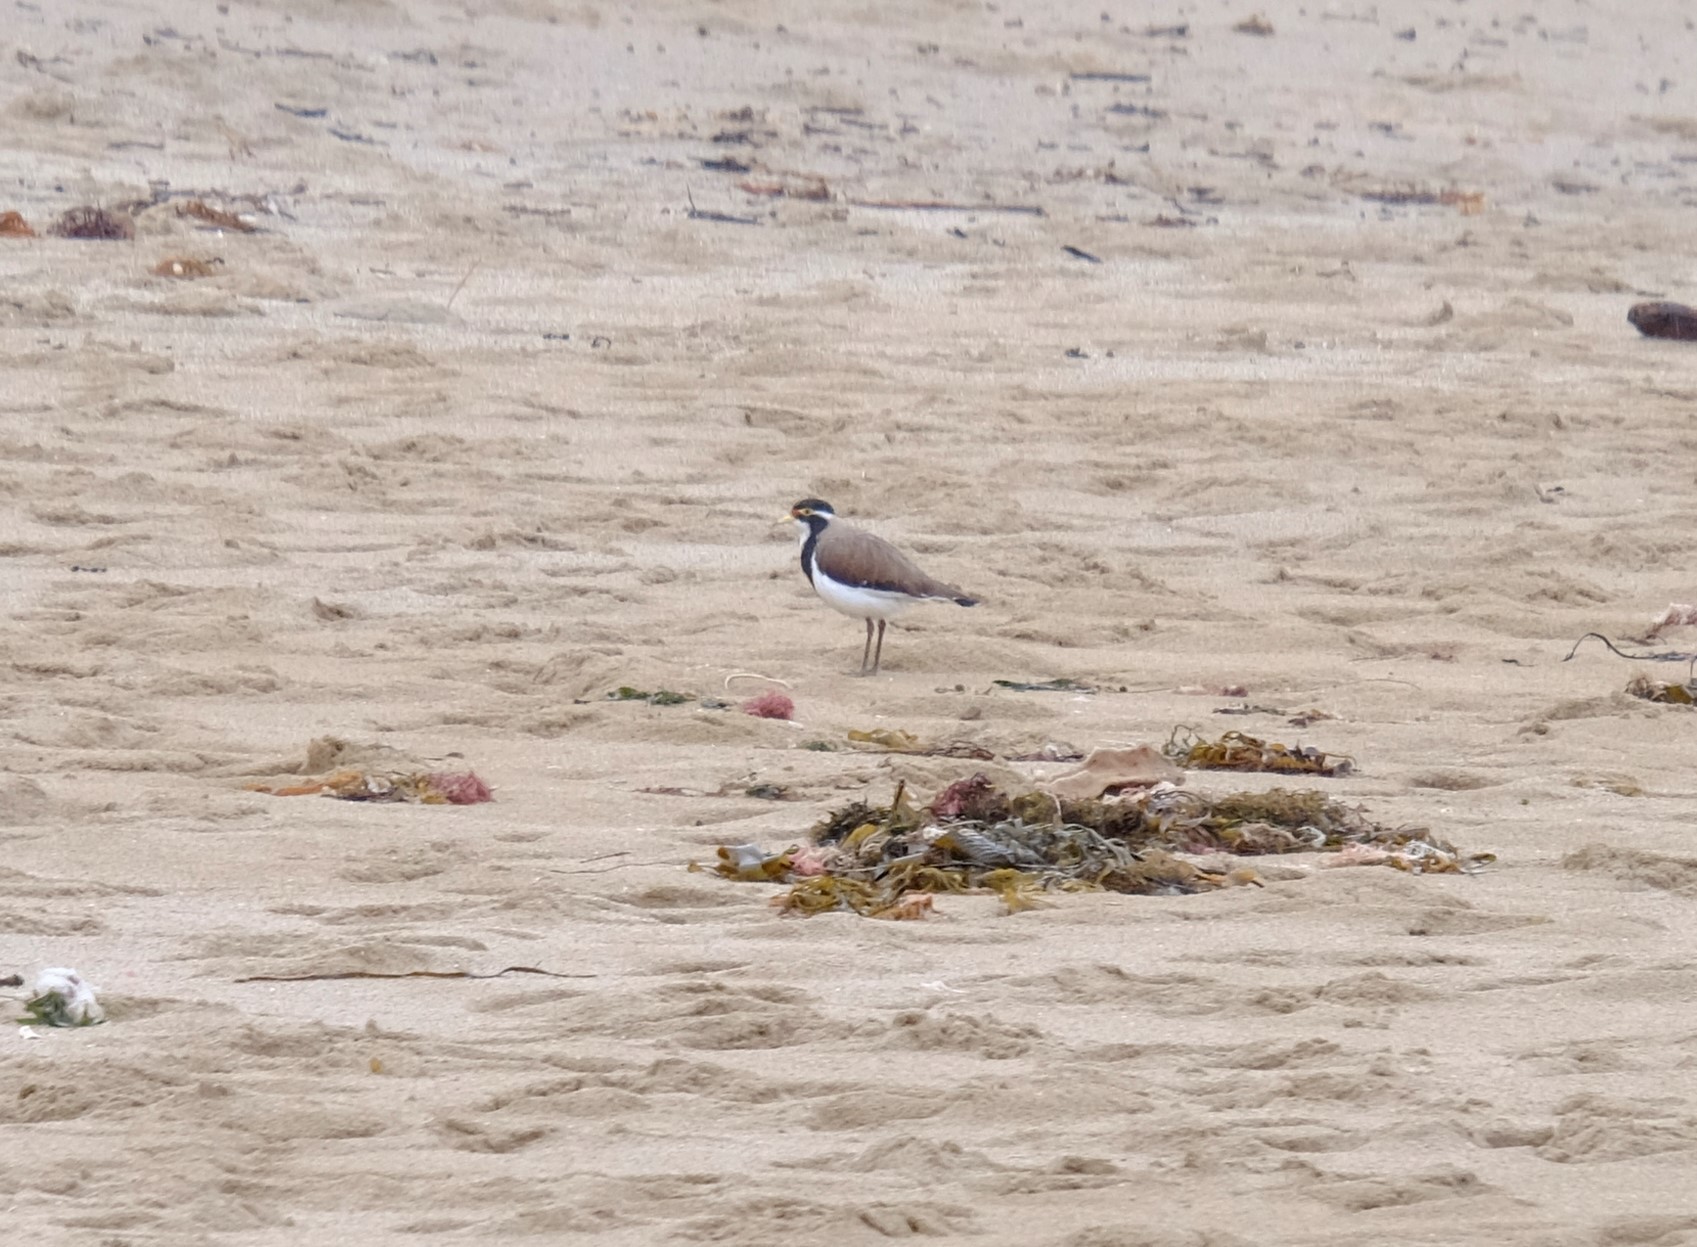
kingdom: Animalia
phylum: Chordata
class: Aves
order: Charadriiformes
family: Charadriidae
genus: Vanellus
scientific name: Vanellus tricolor
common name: Banded lapwing
